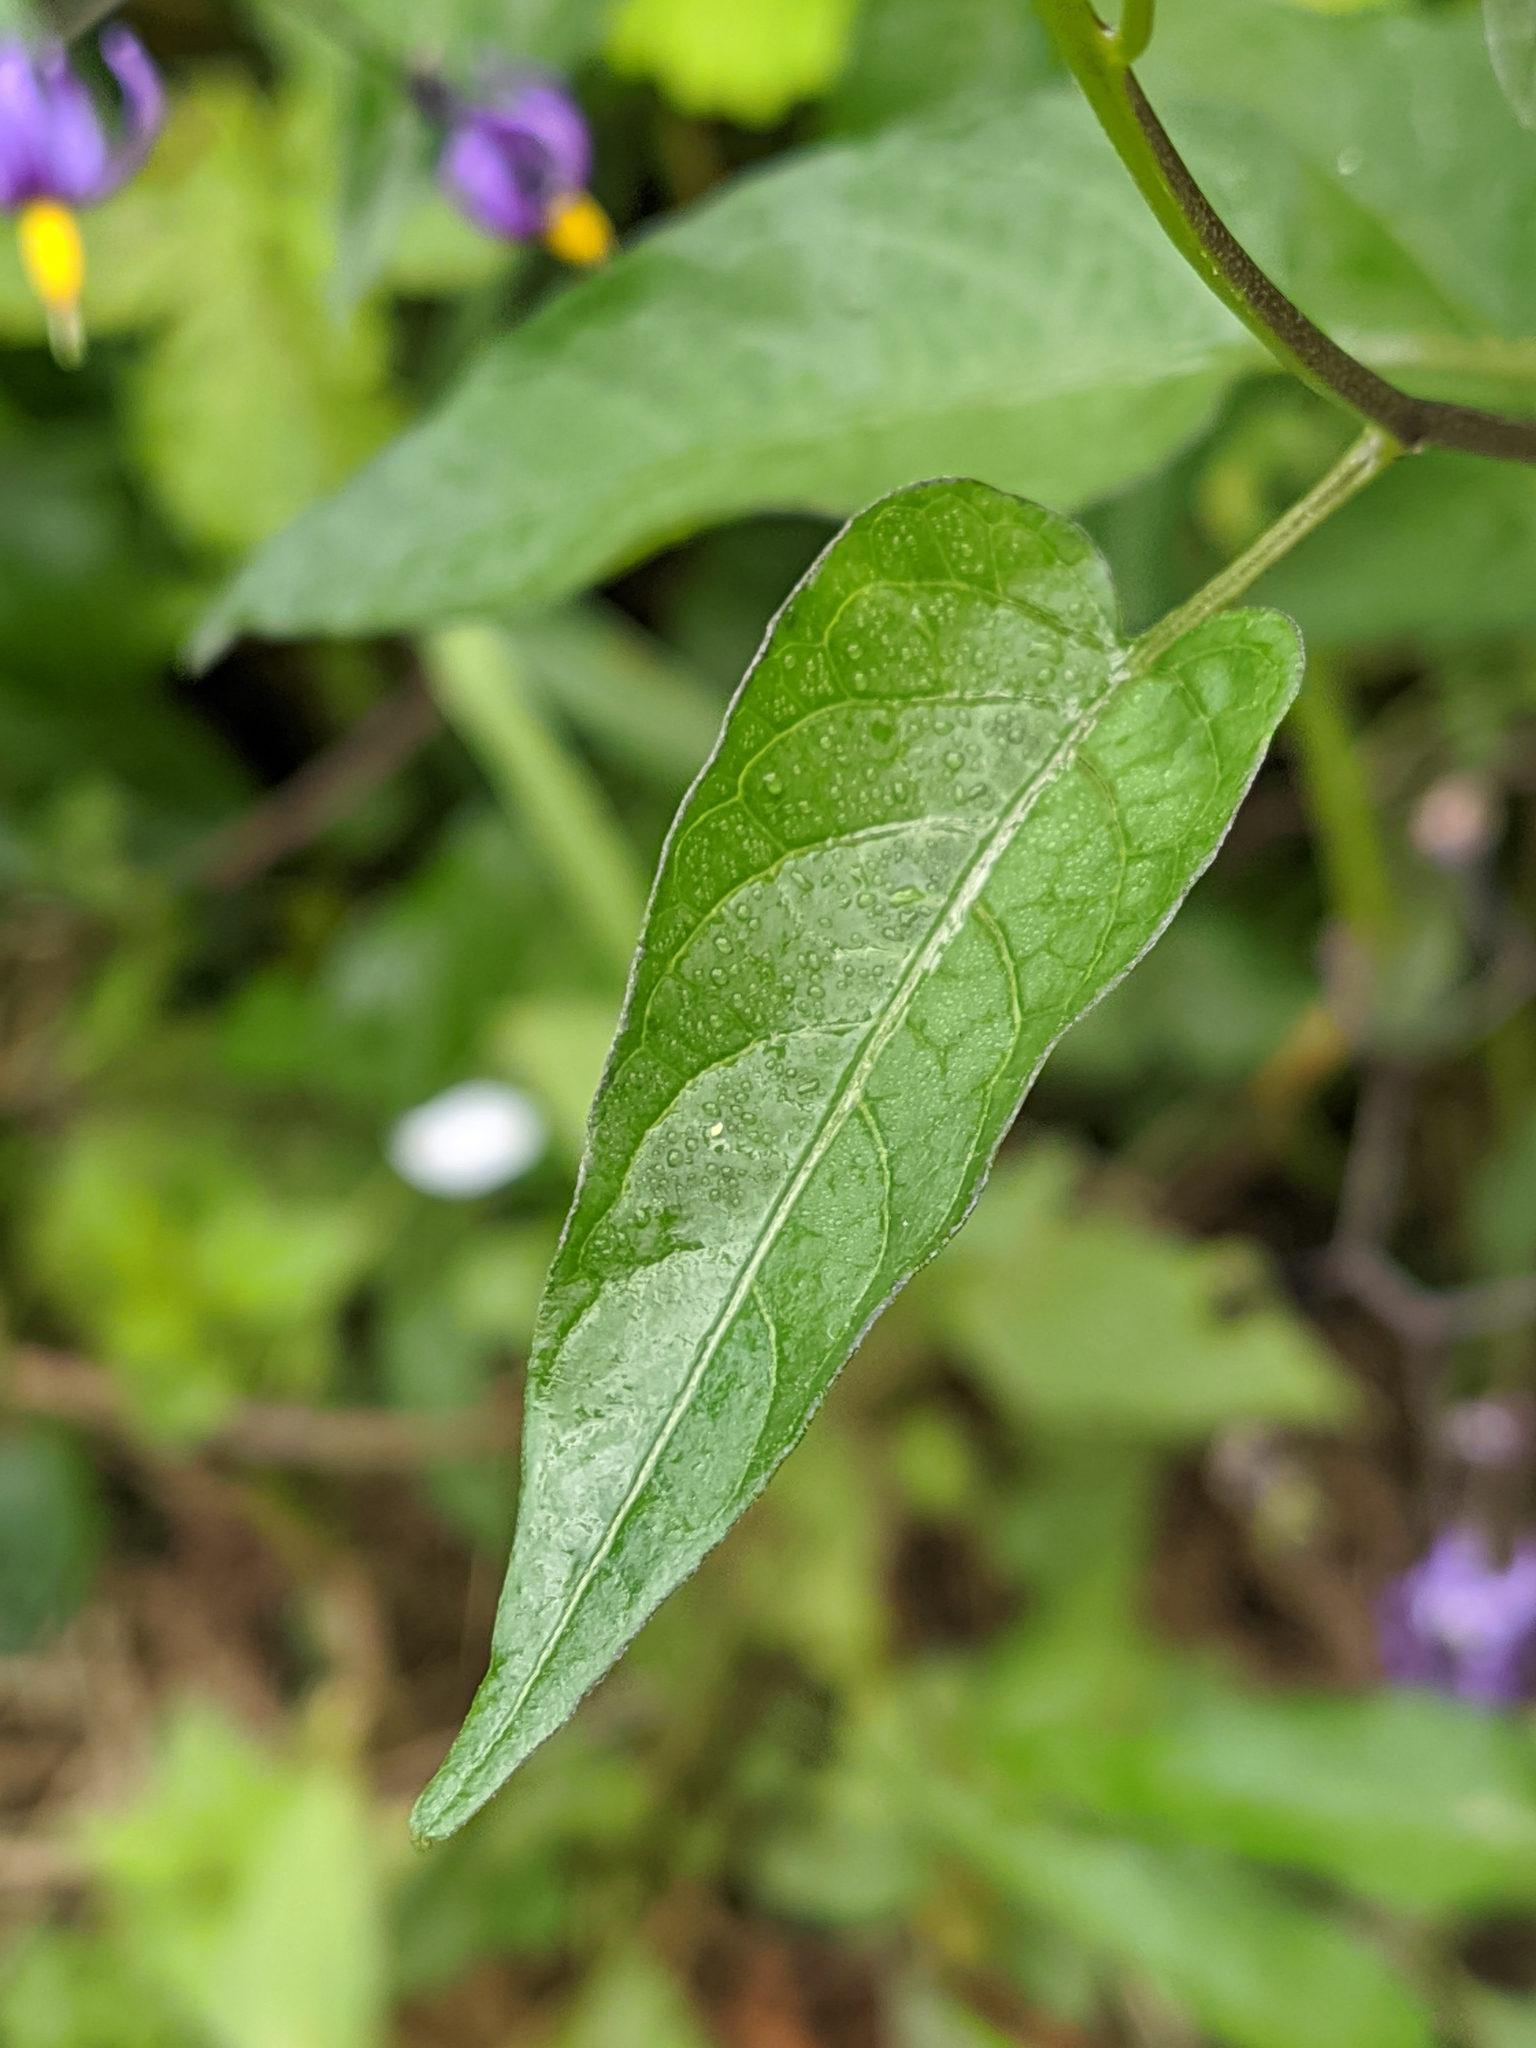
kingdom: Plantae
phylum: Tracheophyta
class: Magnoliopsida
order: Solanales
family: Solanaceae
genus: Solanum
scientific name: Solanum dulcamara
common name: Climbing nightshade
